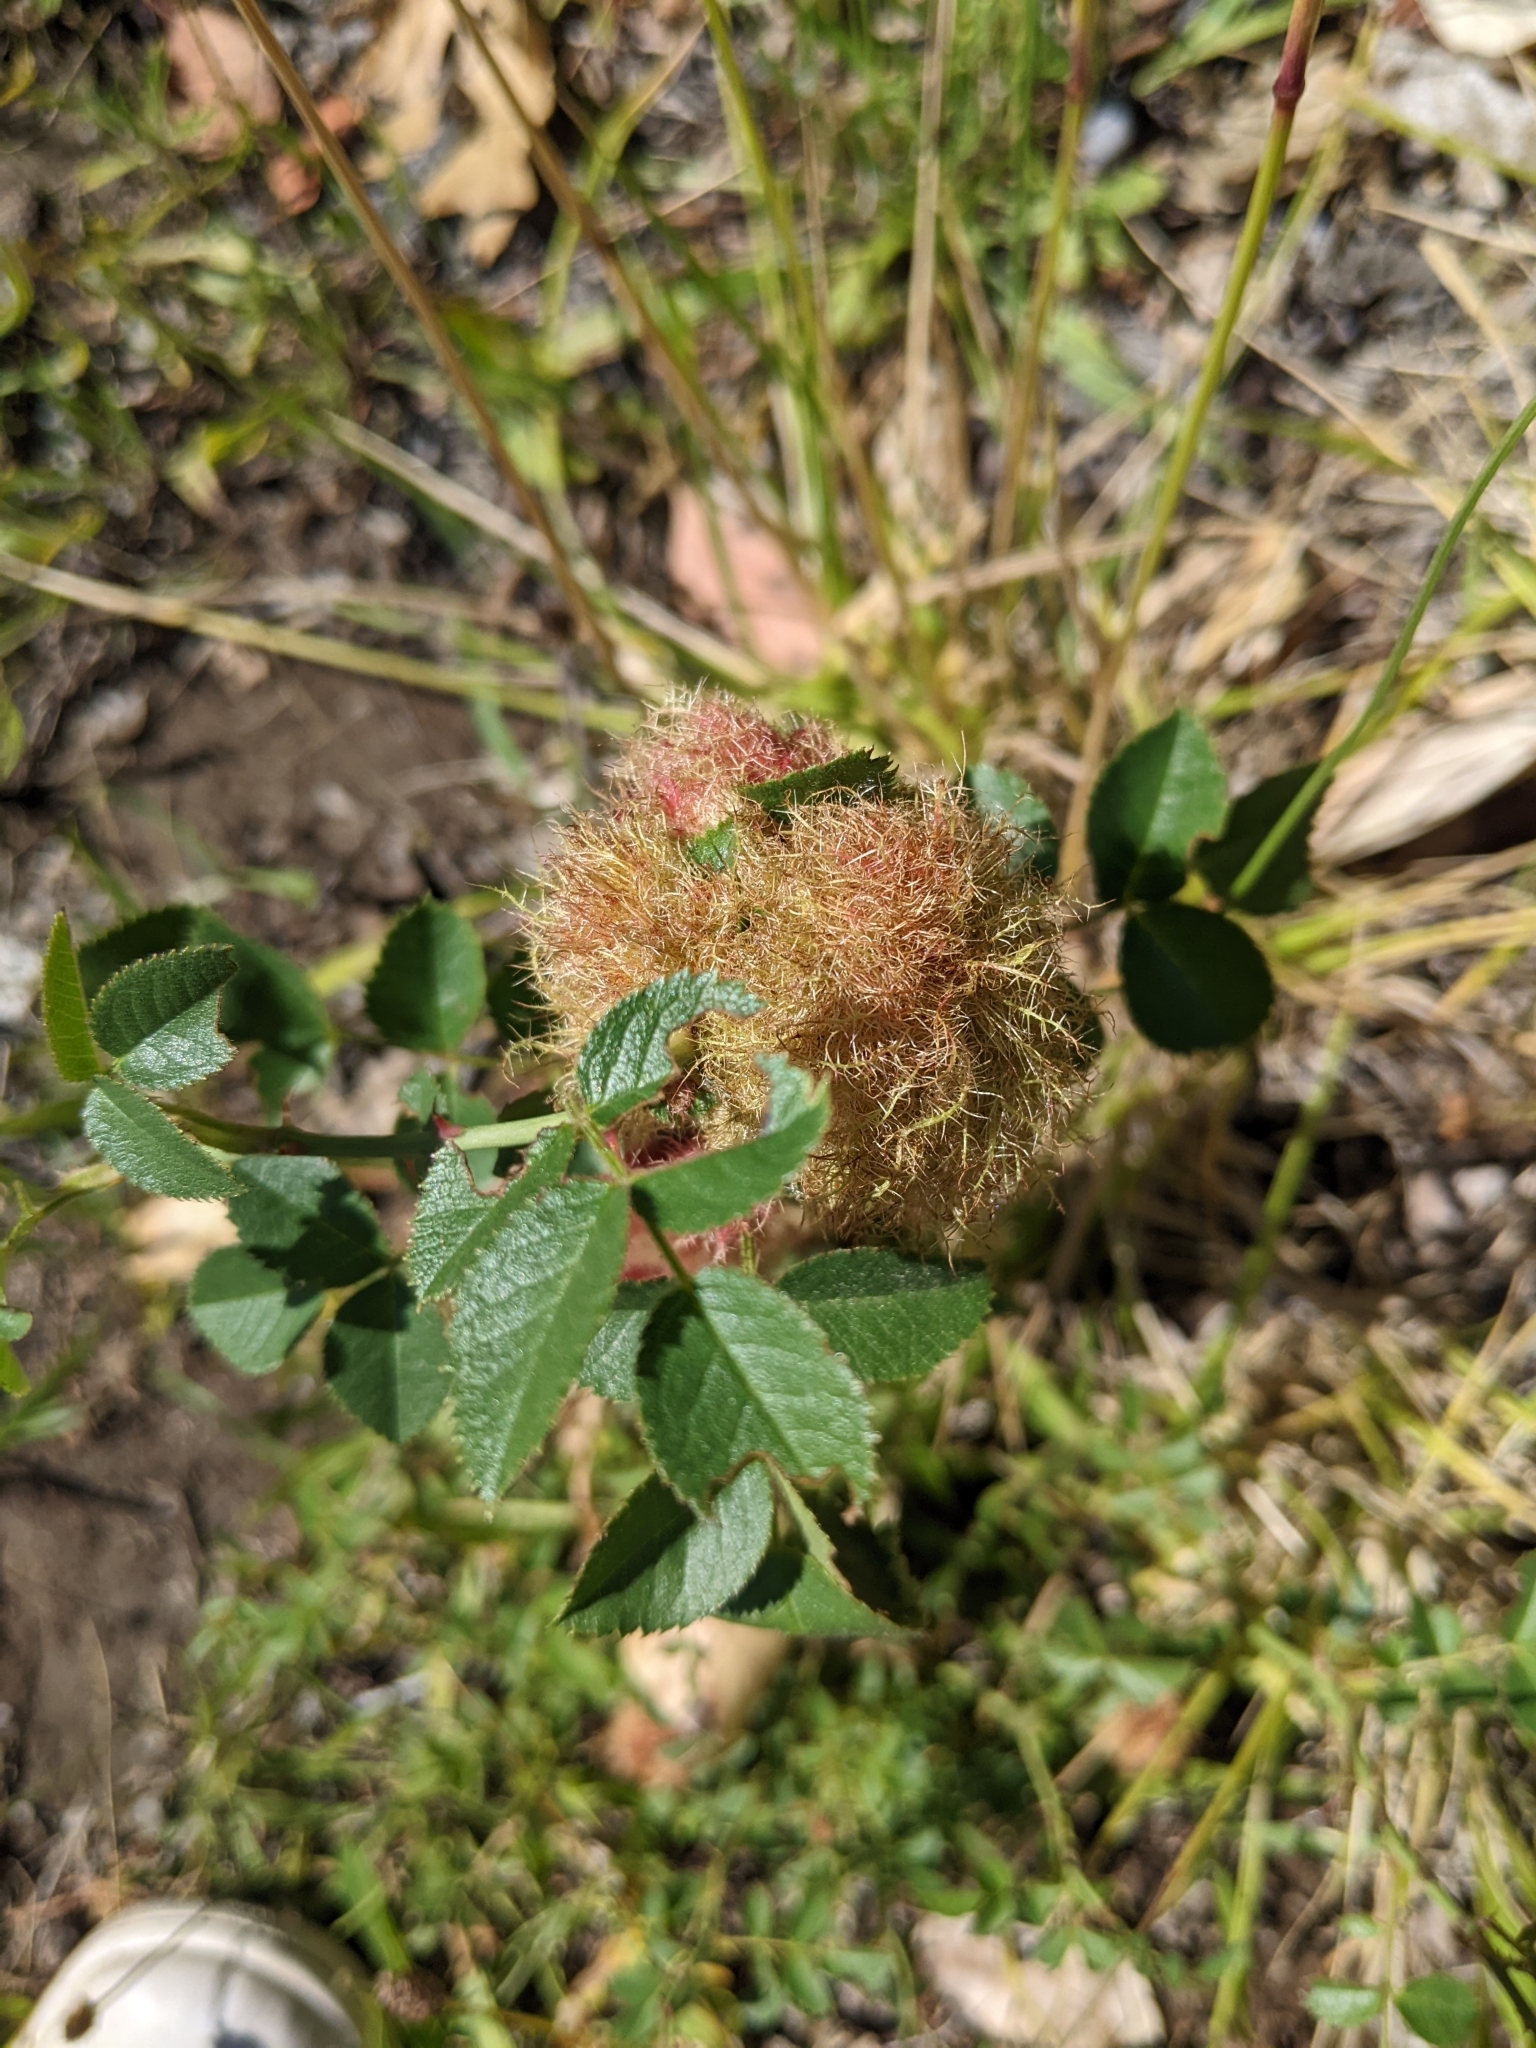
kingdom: Animalia
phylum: Arthropoda
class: Insecta
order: Hymenoptera
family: Cynipidae
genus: Diplolepis
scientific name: Diplolepis rosae
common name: Bedeguar gall
